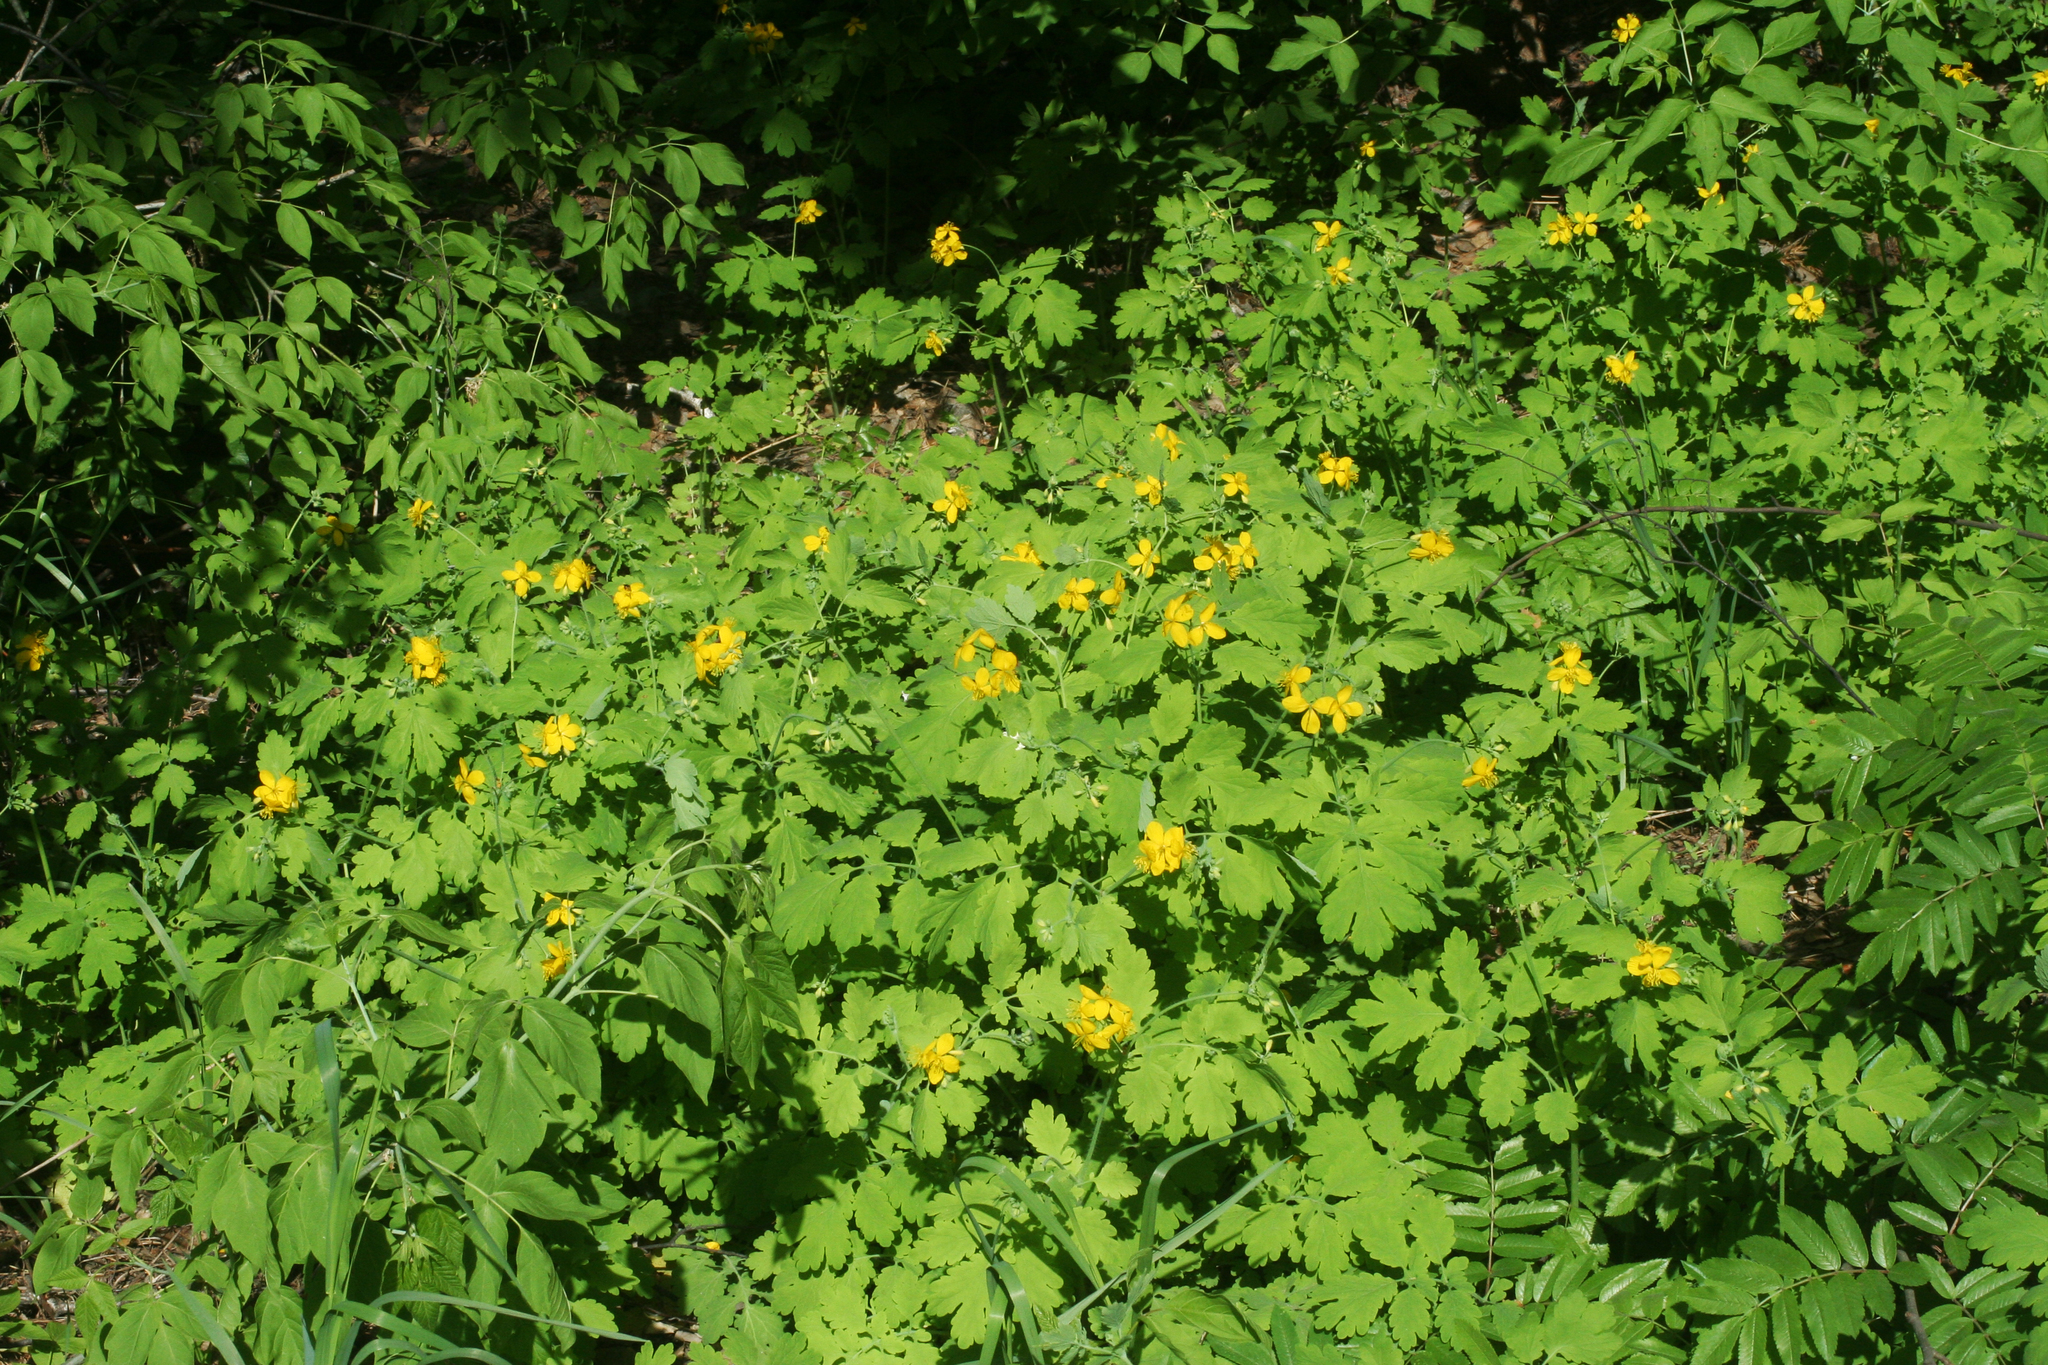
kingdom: Plantae
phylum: Tracheophyta
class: Magnoliopsida
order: Ranunculales
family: Papaveraceae
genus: Chelidonium
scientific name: Chelidonium majus
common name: Greater celandine
